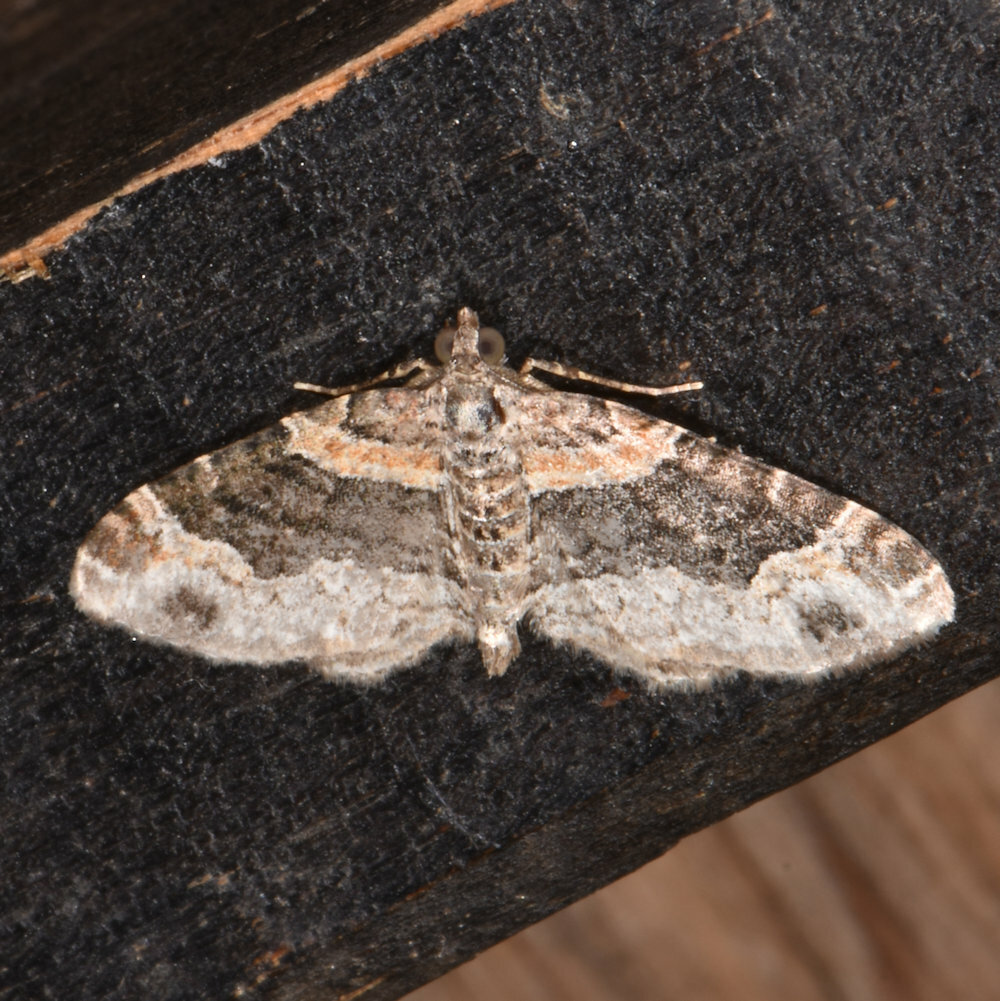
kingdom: Animalia
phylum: Arthropoda
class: Insecta
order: Lepidoptera
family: Geometridae
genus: Xanthorhoe
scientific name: Xanthorhoe ferrugata
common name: Dark-barred twin-spot carpet
